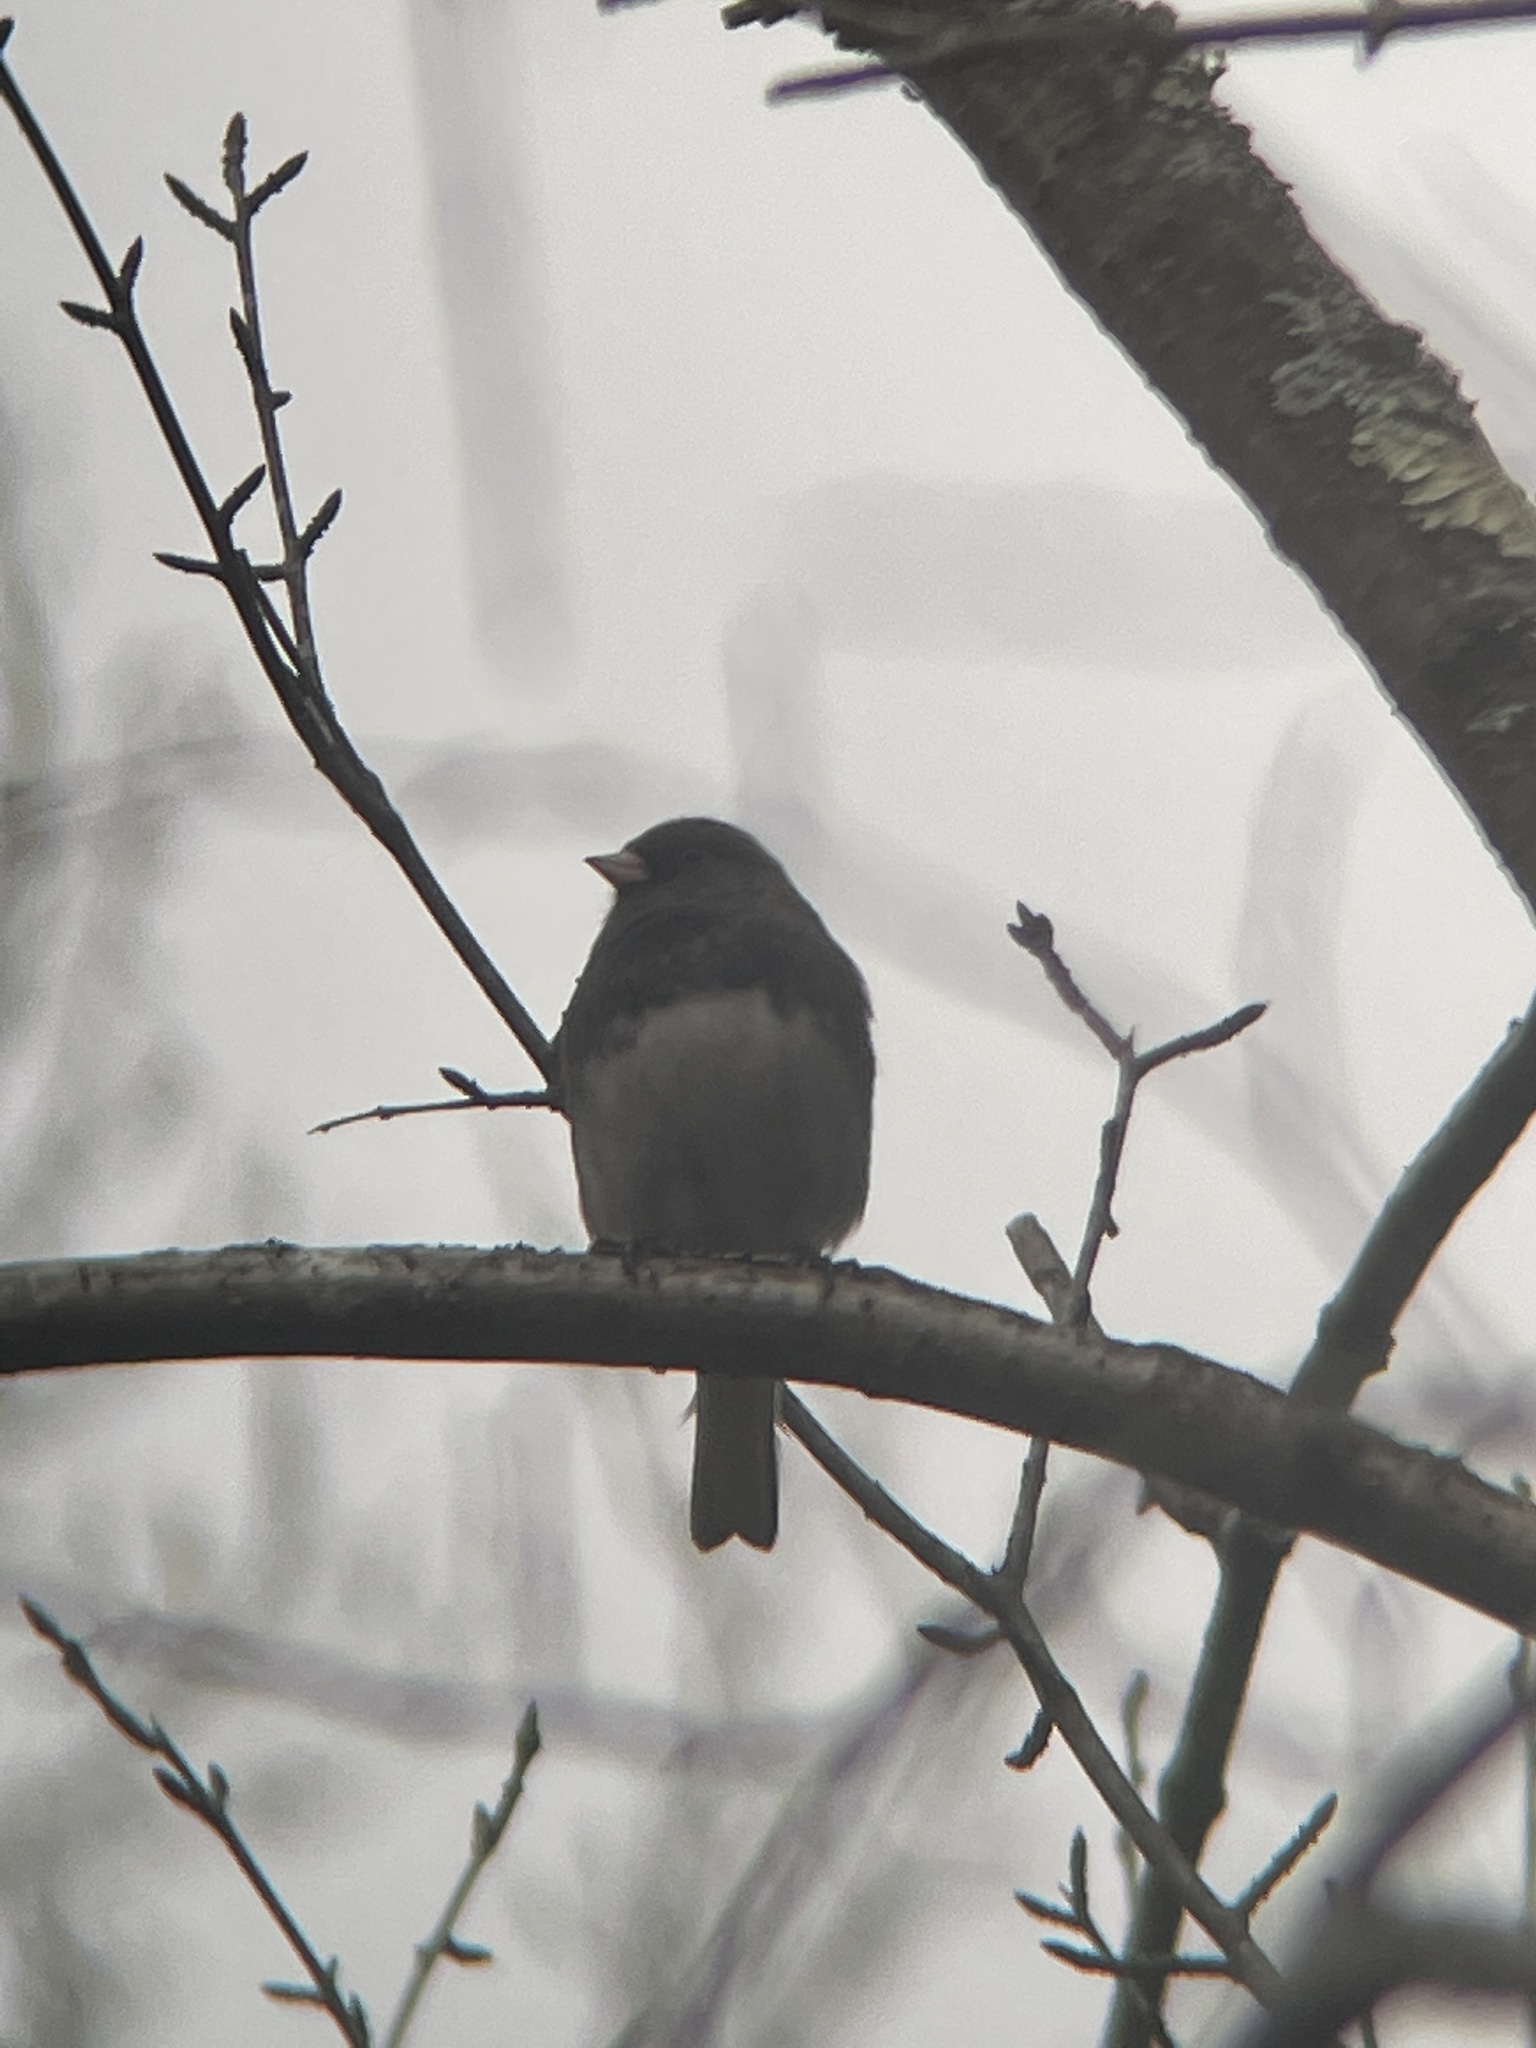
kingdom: Animalia
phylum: Chordata
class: Aves
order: Passeriformes
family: Passerellidae
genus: Junco
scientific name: Junco hyemalis
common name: Dark-eyed junco
